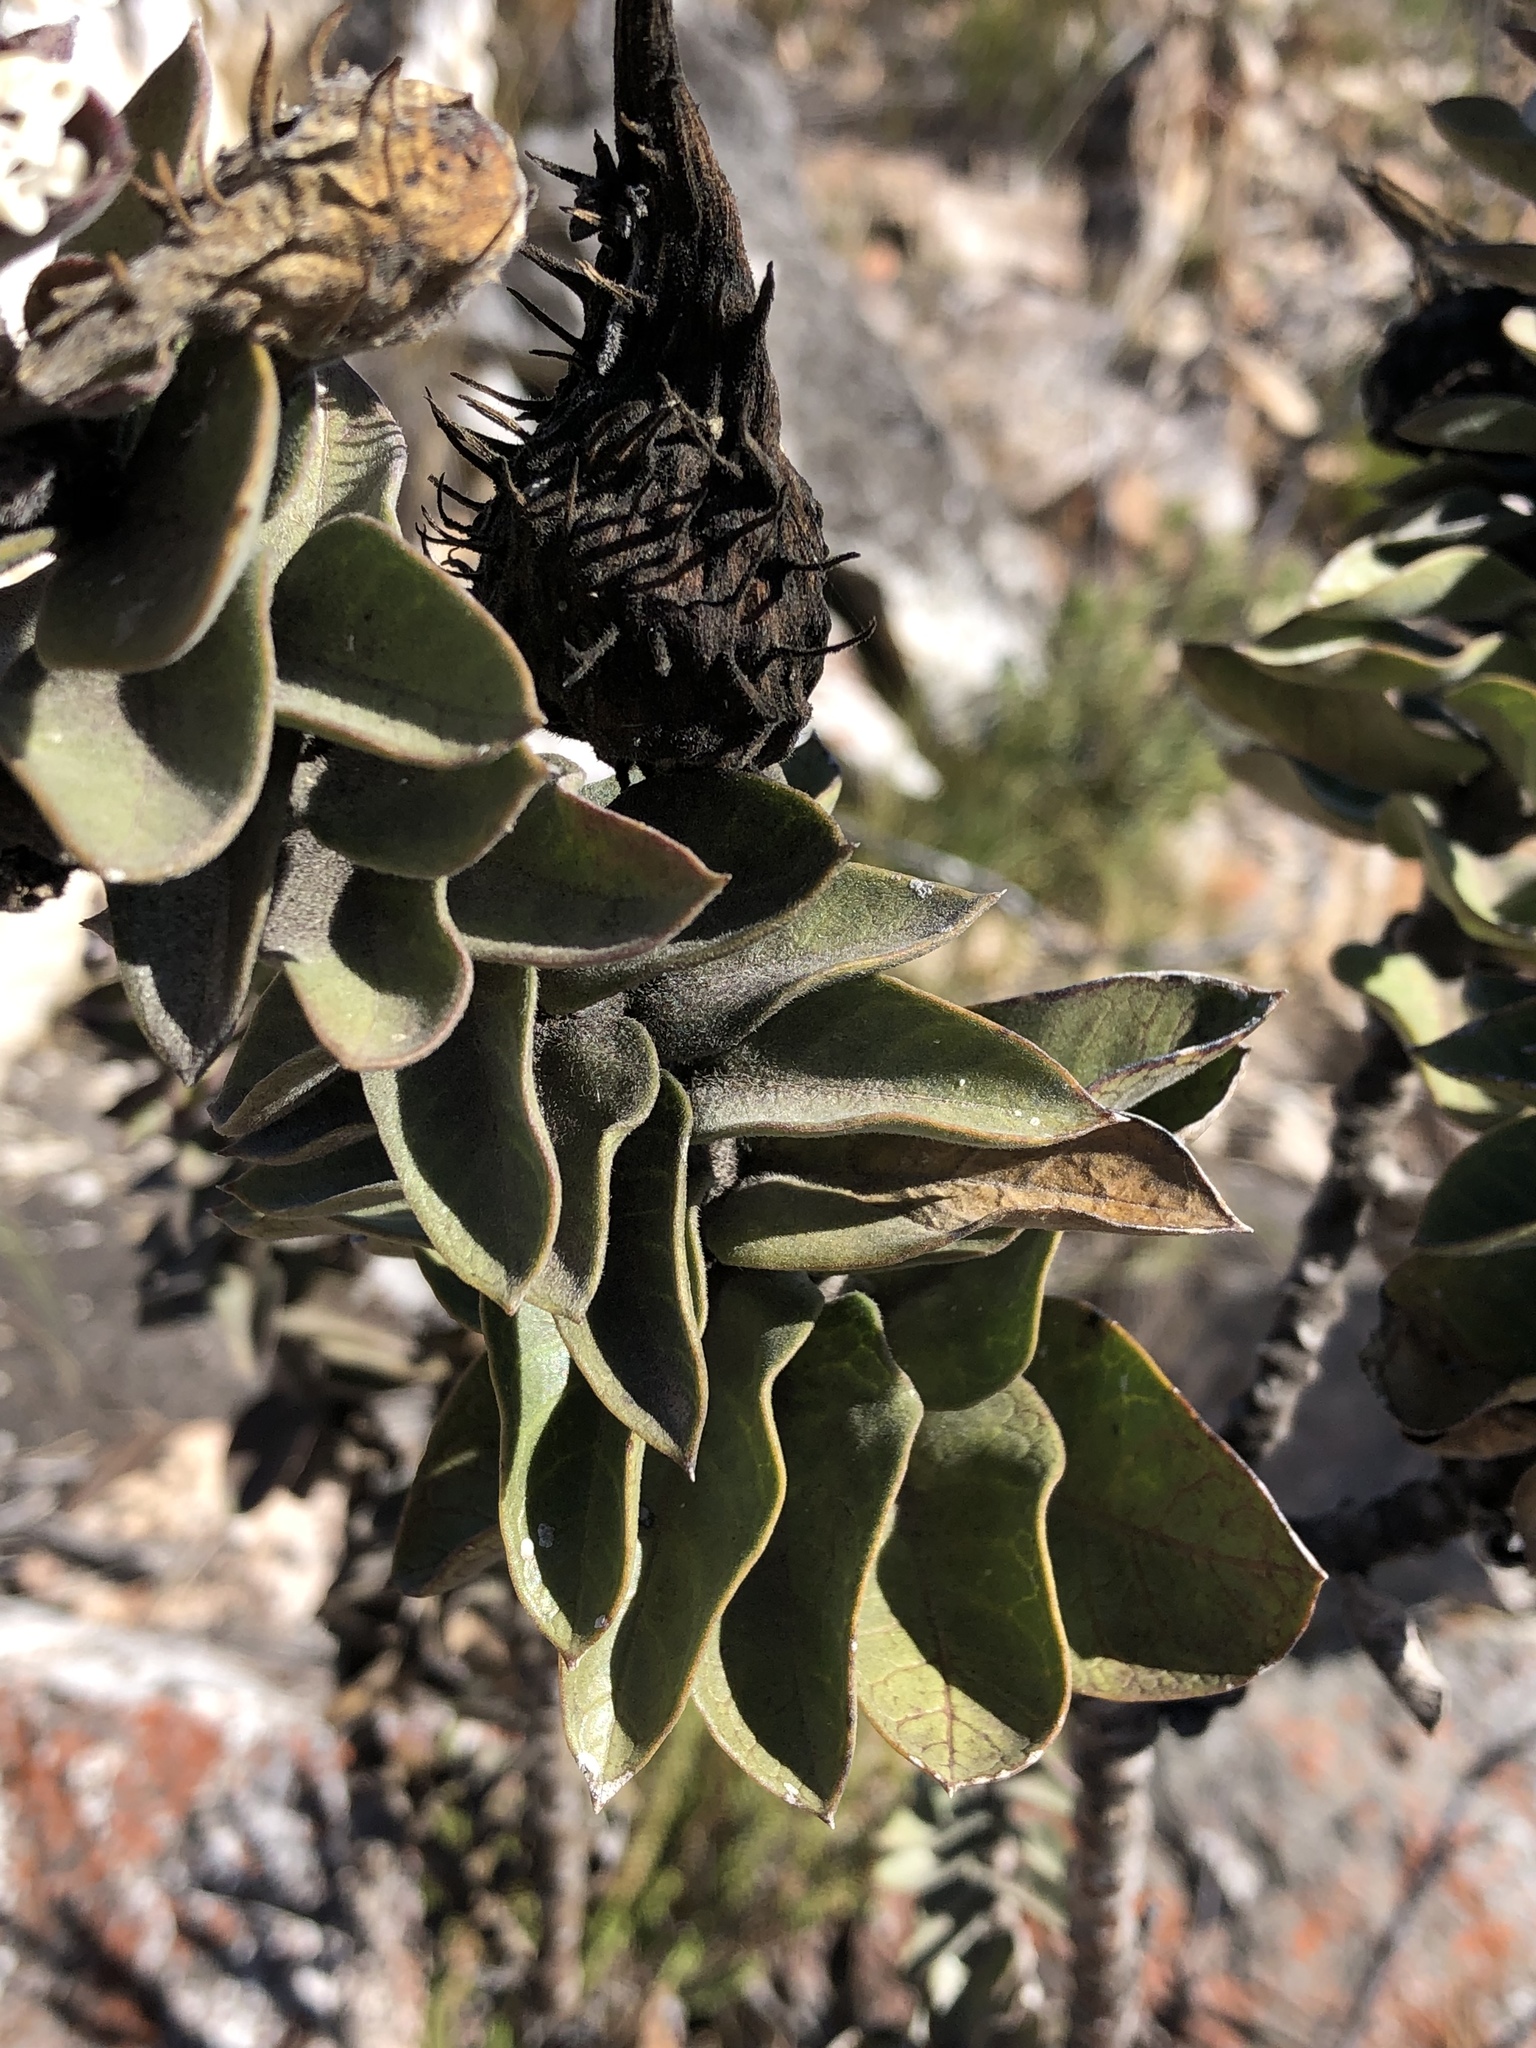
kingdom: Plantae
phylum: Tracheophyta
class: Magnoliopsida
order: Gentianales
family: Apocynaceae
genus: Gomphocarpus
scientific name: Gomphocarpus cancellatus
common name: Wild cotton
